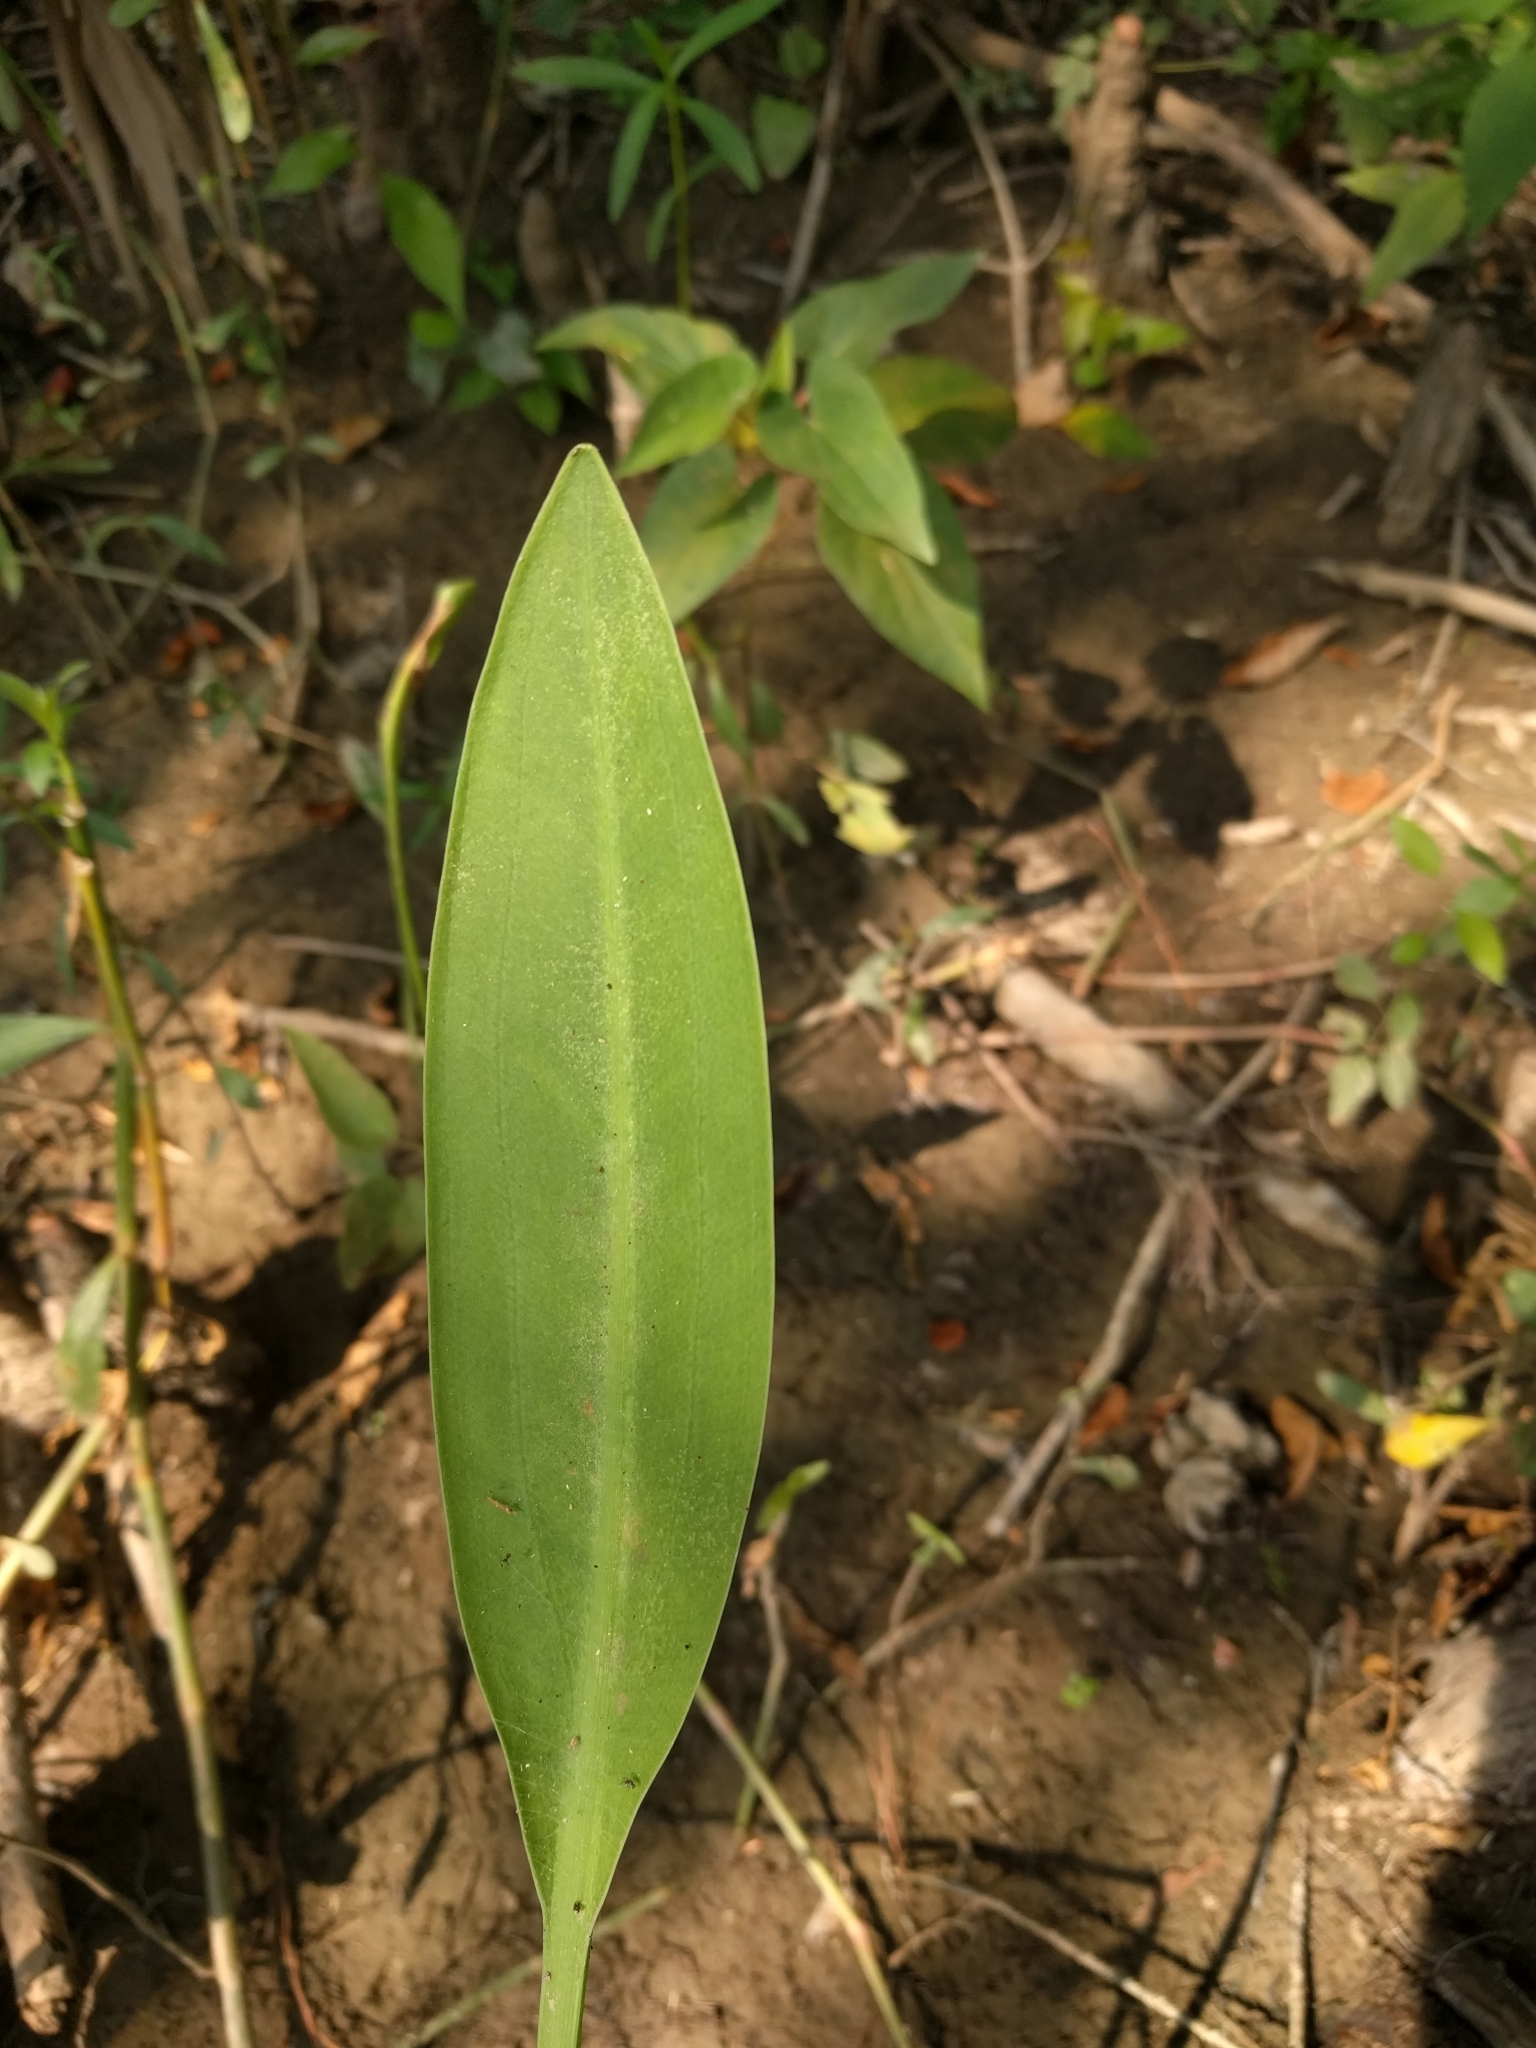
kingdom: Plantae
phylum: Tracheophyta
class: Liliopsida
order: Alismatales
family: Alismataceae
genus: Sagittaria
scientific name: Sagittaria lancifolia
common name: Lance-leaf arrowhead
